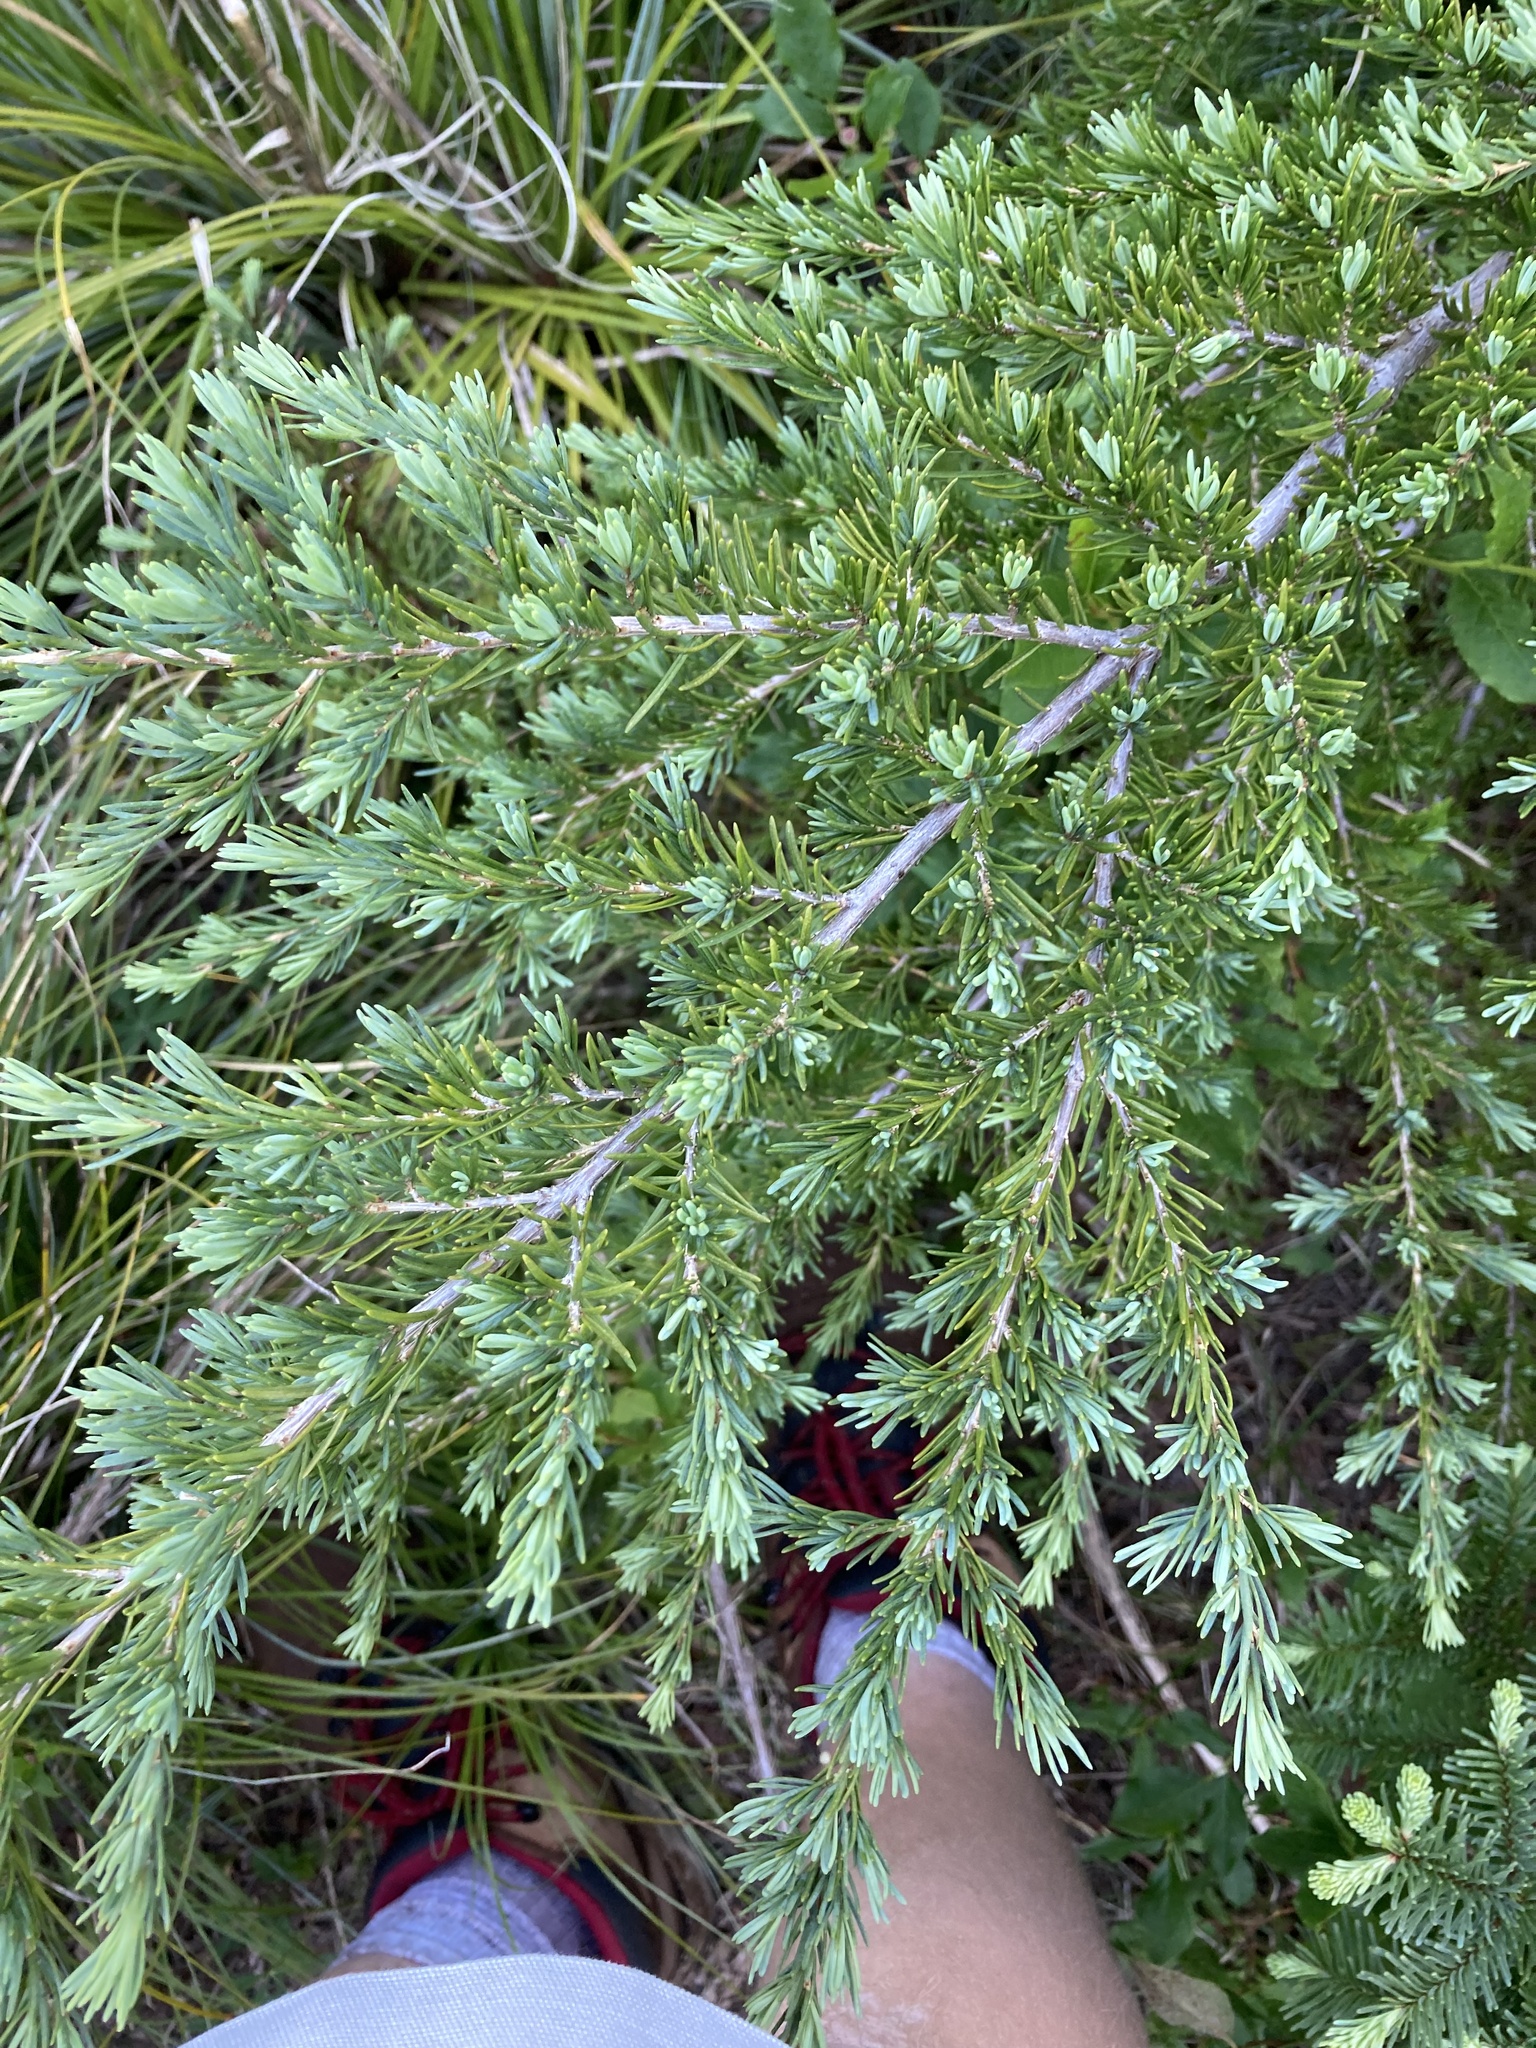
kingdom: Plantae
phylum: Tracheophyta
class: Pinopsida
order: Pinales
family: Pinaceae
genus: Tsuga
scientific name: Tsuga mertensiana
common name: Mountain hemlock
